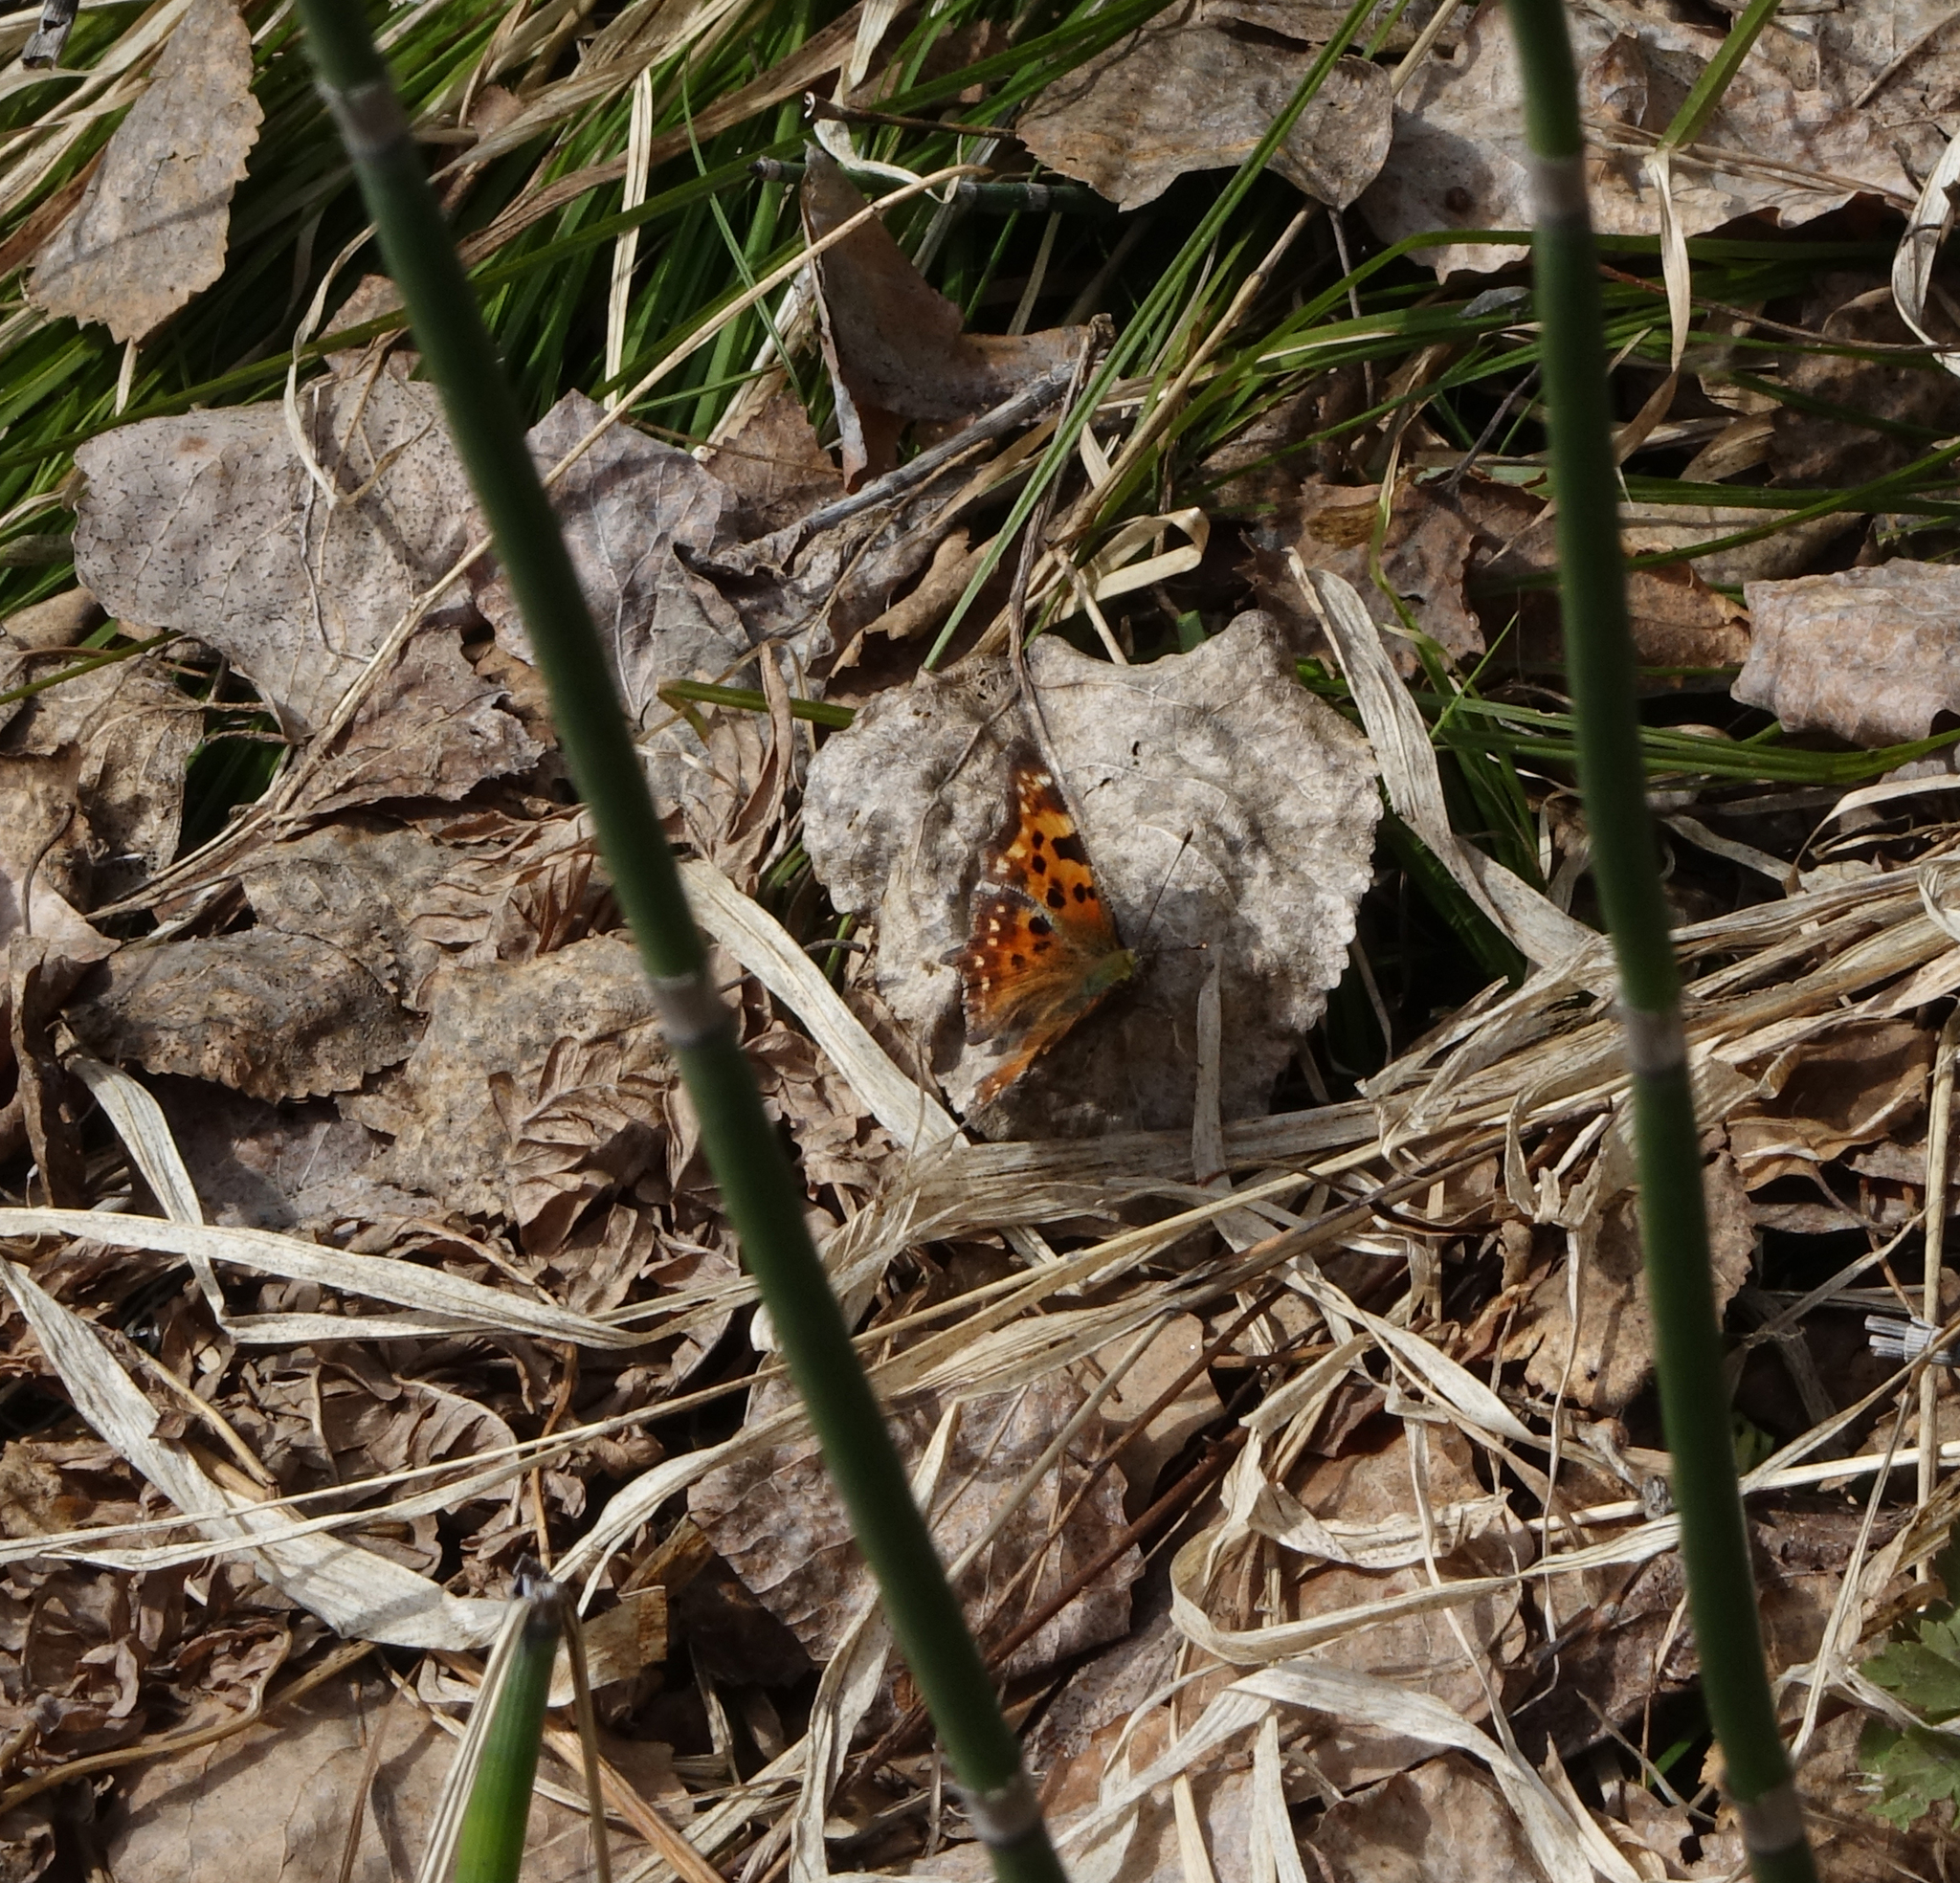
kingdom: Animalia
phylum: Arthropoda
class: Insecta
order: Lepidoptera
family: Nymphalidae
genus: Polygonia
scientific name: Polygonia c-album
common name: Comma
